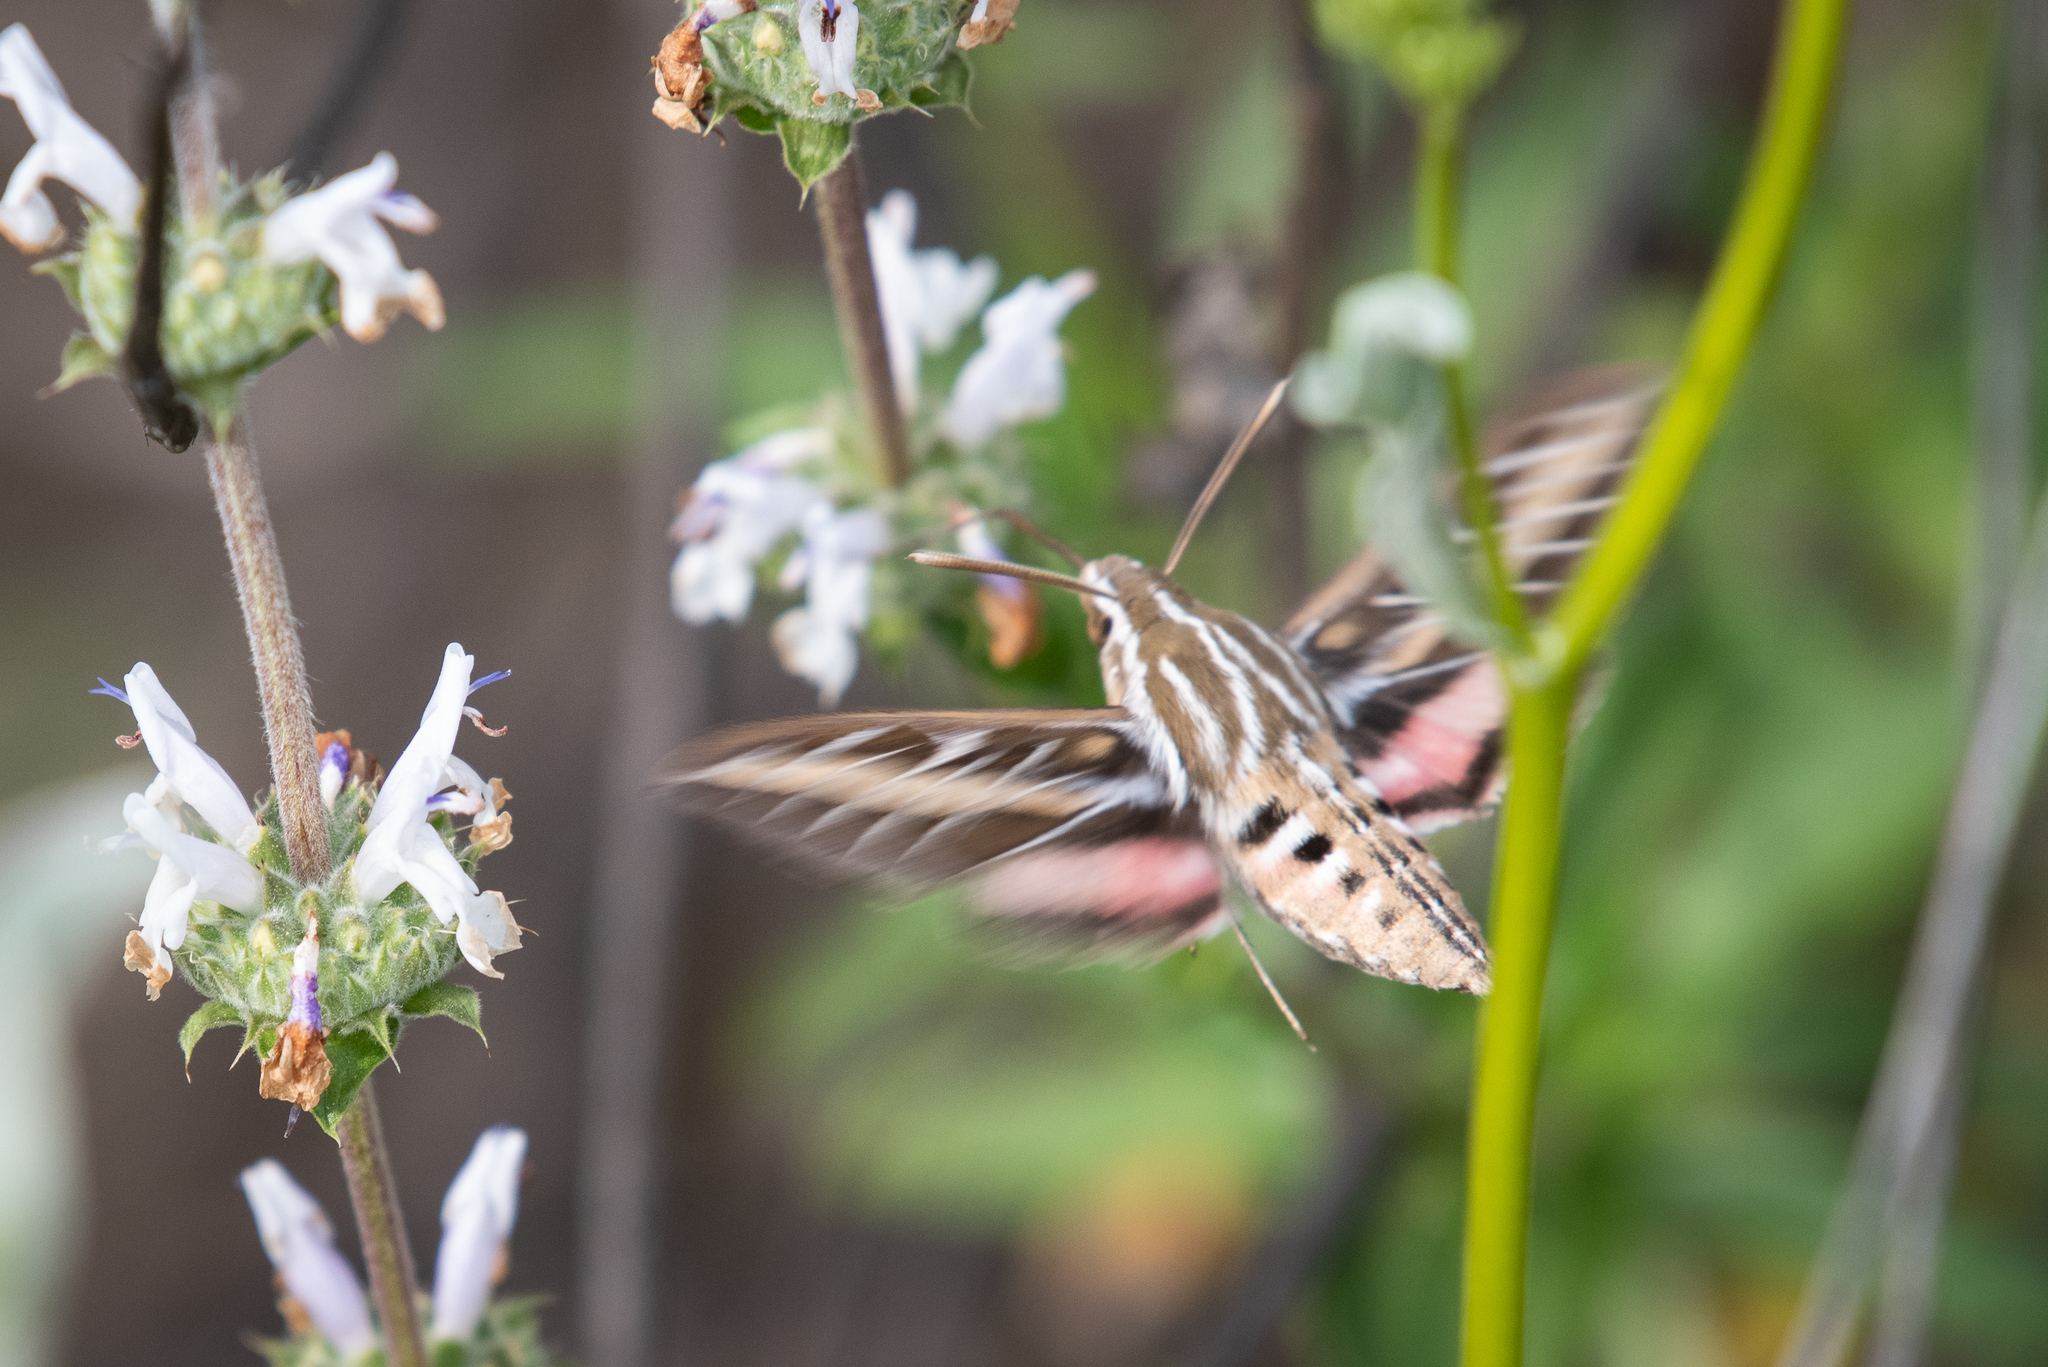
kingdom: Animalia
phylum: Arthropoda
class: Insecta
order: Lepidoptera
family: Sphingidae
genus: Hyles
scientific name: Hyles lineata
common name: White-lined sphinx
